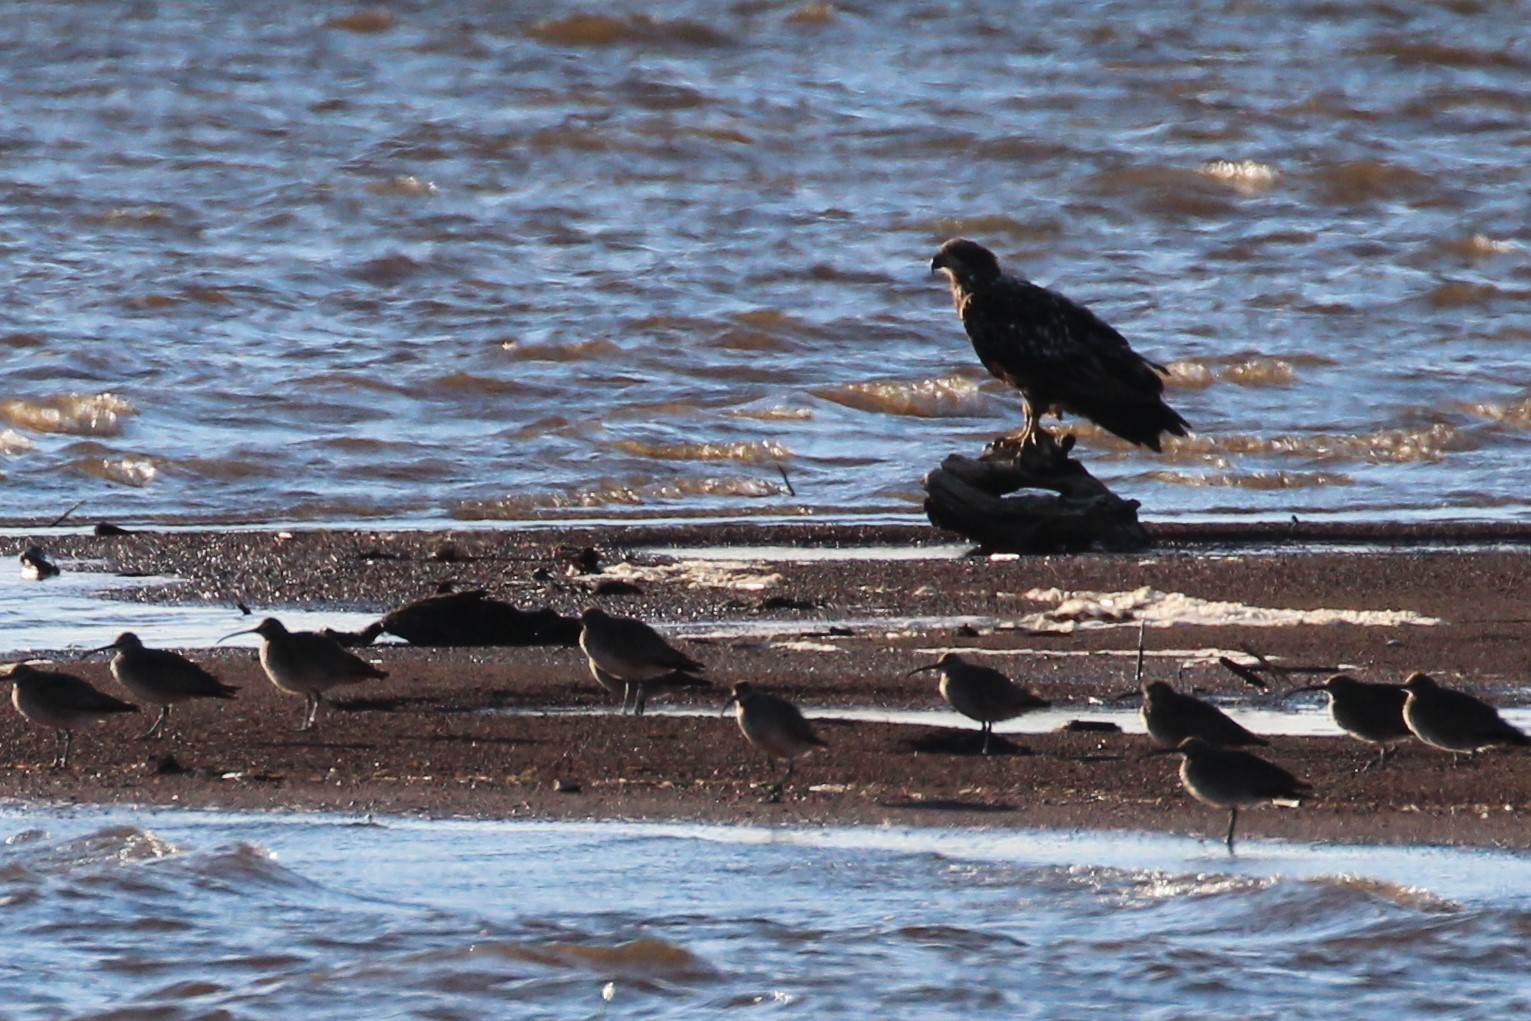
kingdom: Animalia
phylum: Chordata
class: Aves
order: Accipitriformes
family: Accipitridae
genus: Haliaeetus
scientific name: Haliaeetus leucocephalus
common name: Bald eagle
